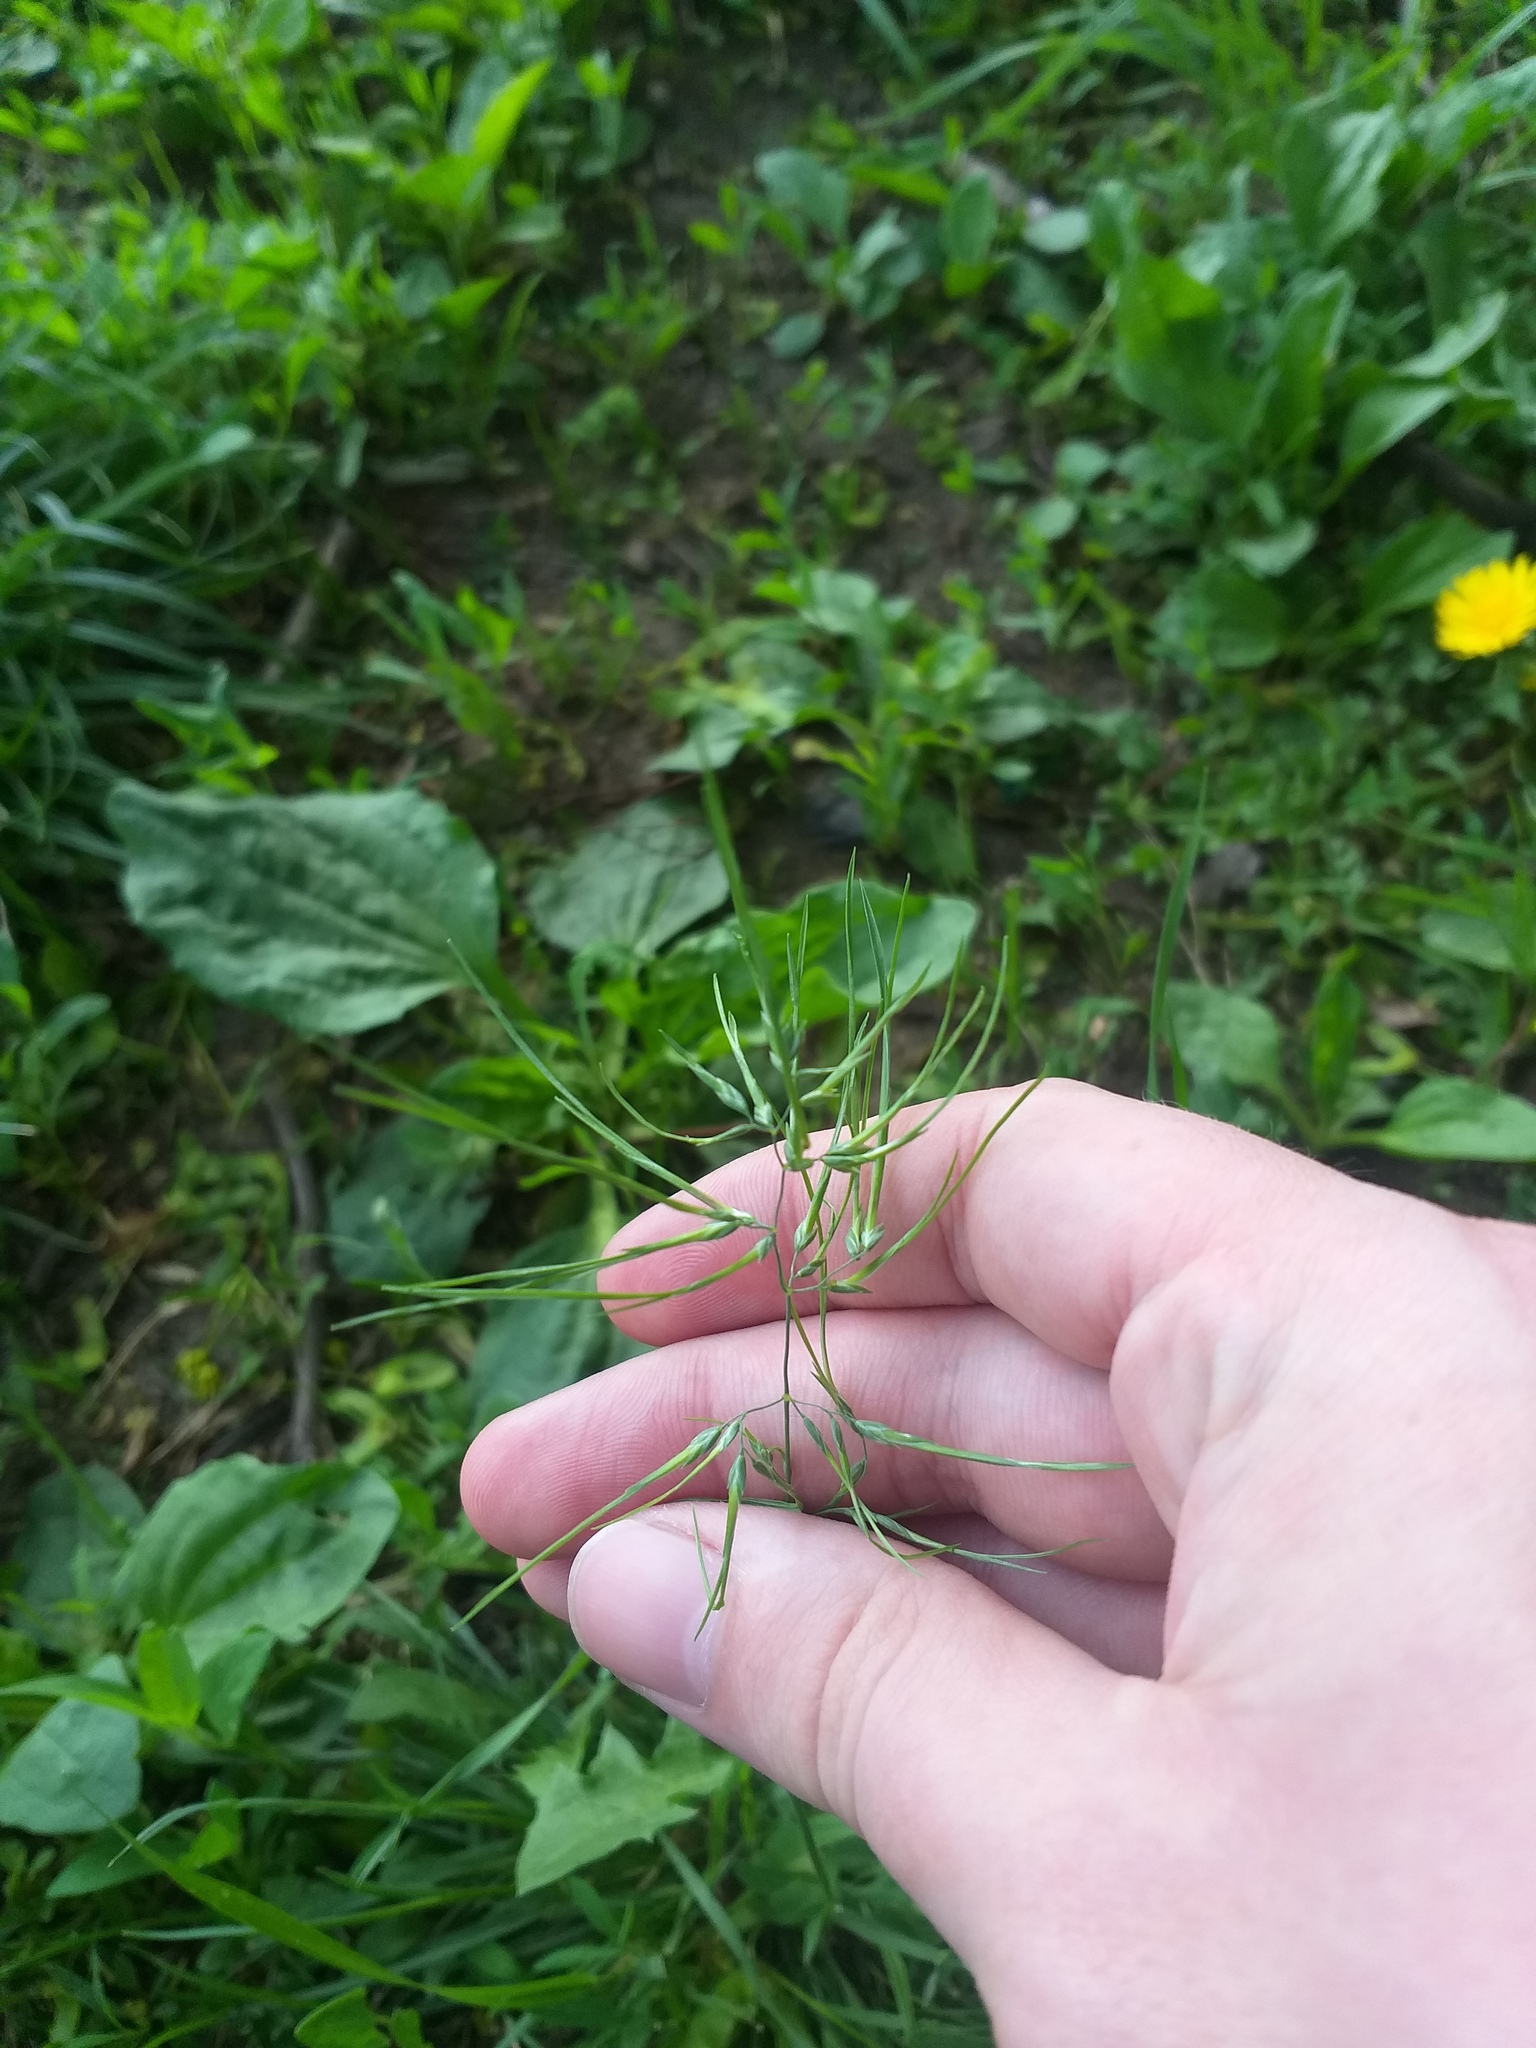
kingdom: Plantae
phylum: Tracheophyta
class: Liliopsida
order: Poales
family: Poaceae
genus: Poa
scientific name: Poa bulbosa
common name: Bulbous bluegrass
